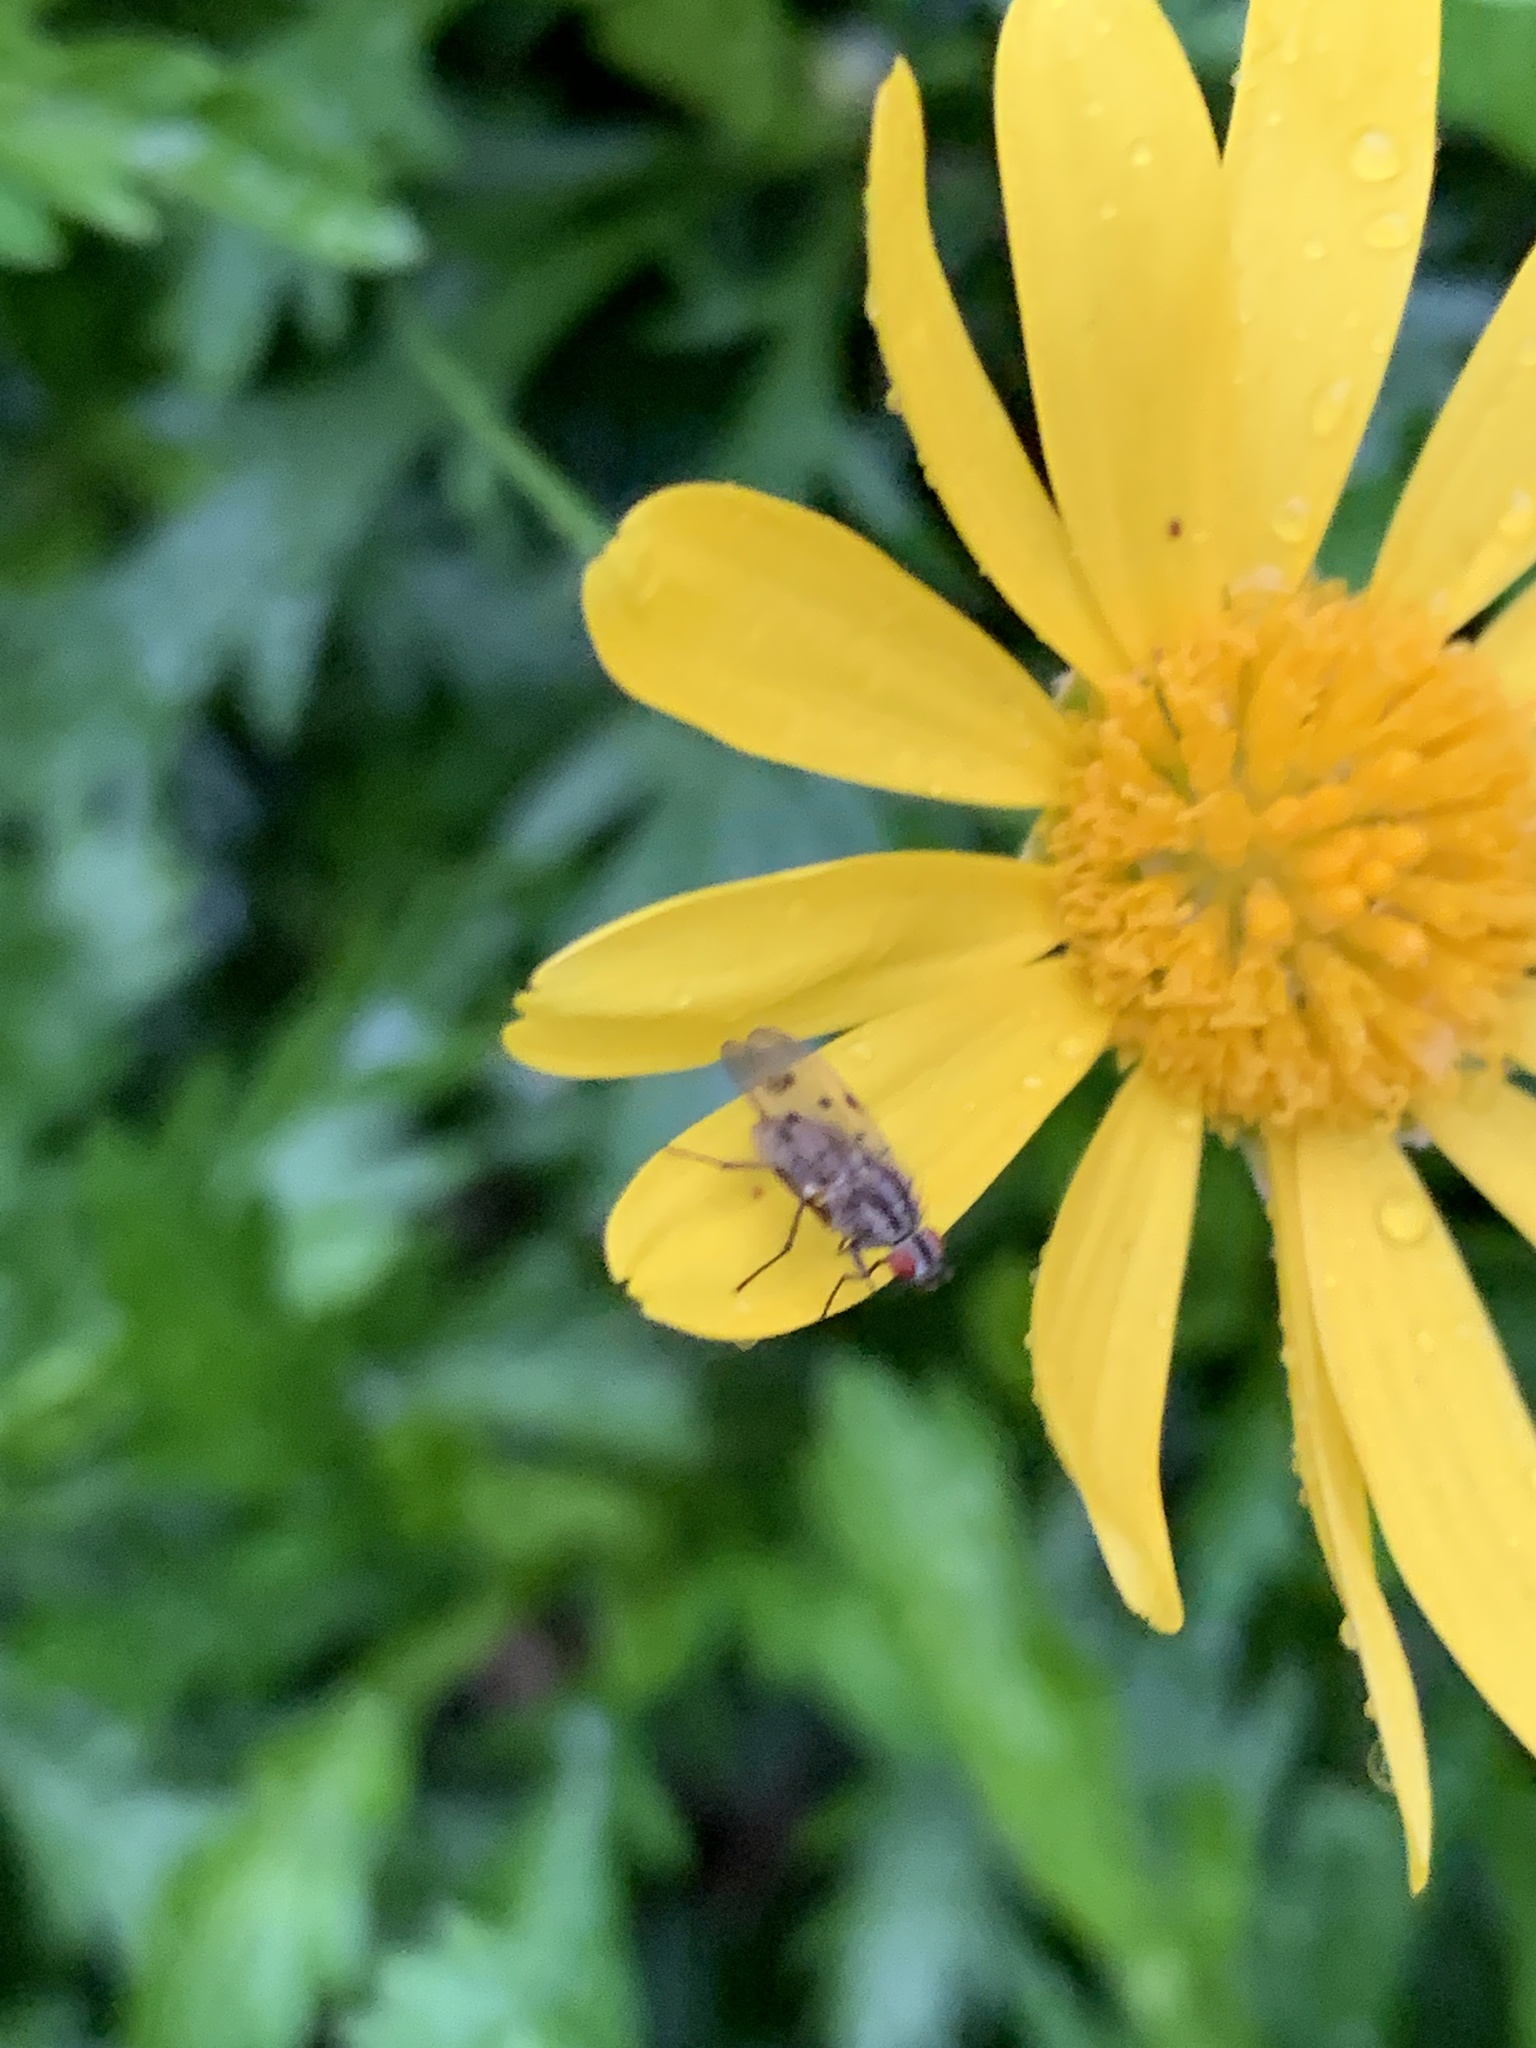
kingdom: Animalia
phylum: Arthropoda
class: Insecta
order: Diptera
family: Anthomyiidae
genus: Anthomyia
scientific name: Anthomyia punctipennis
